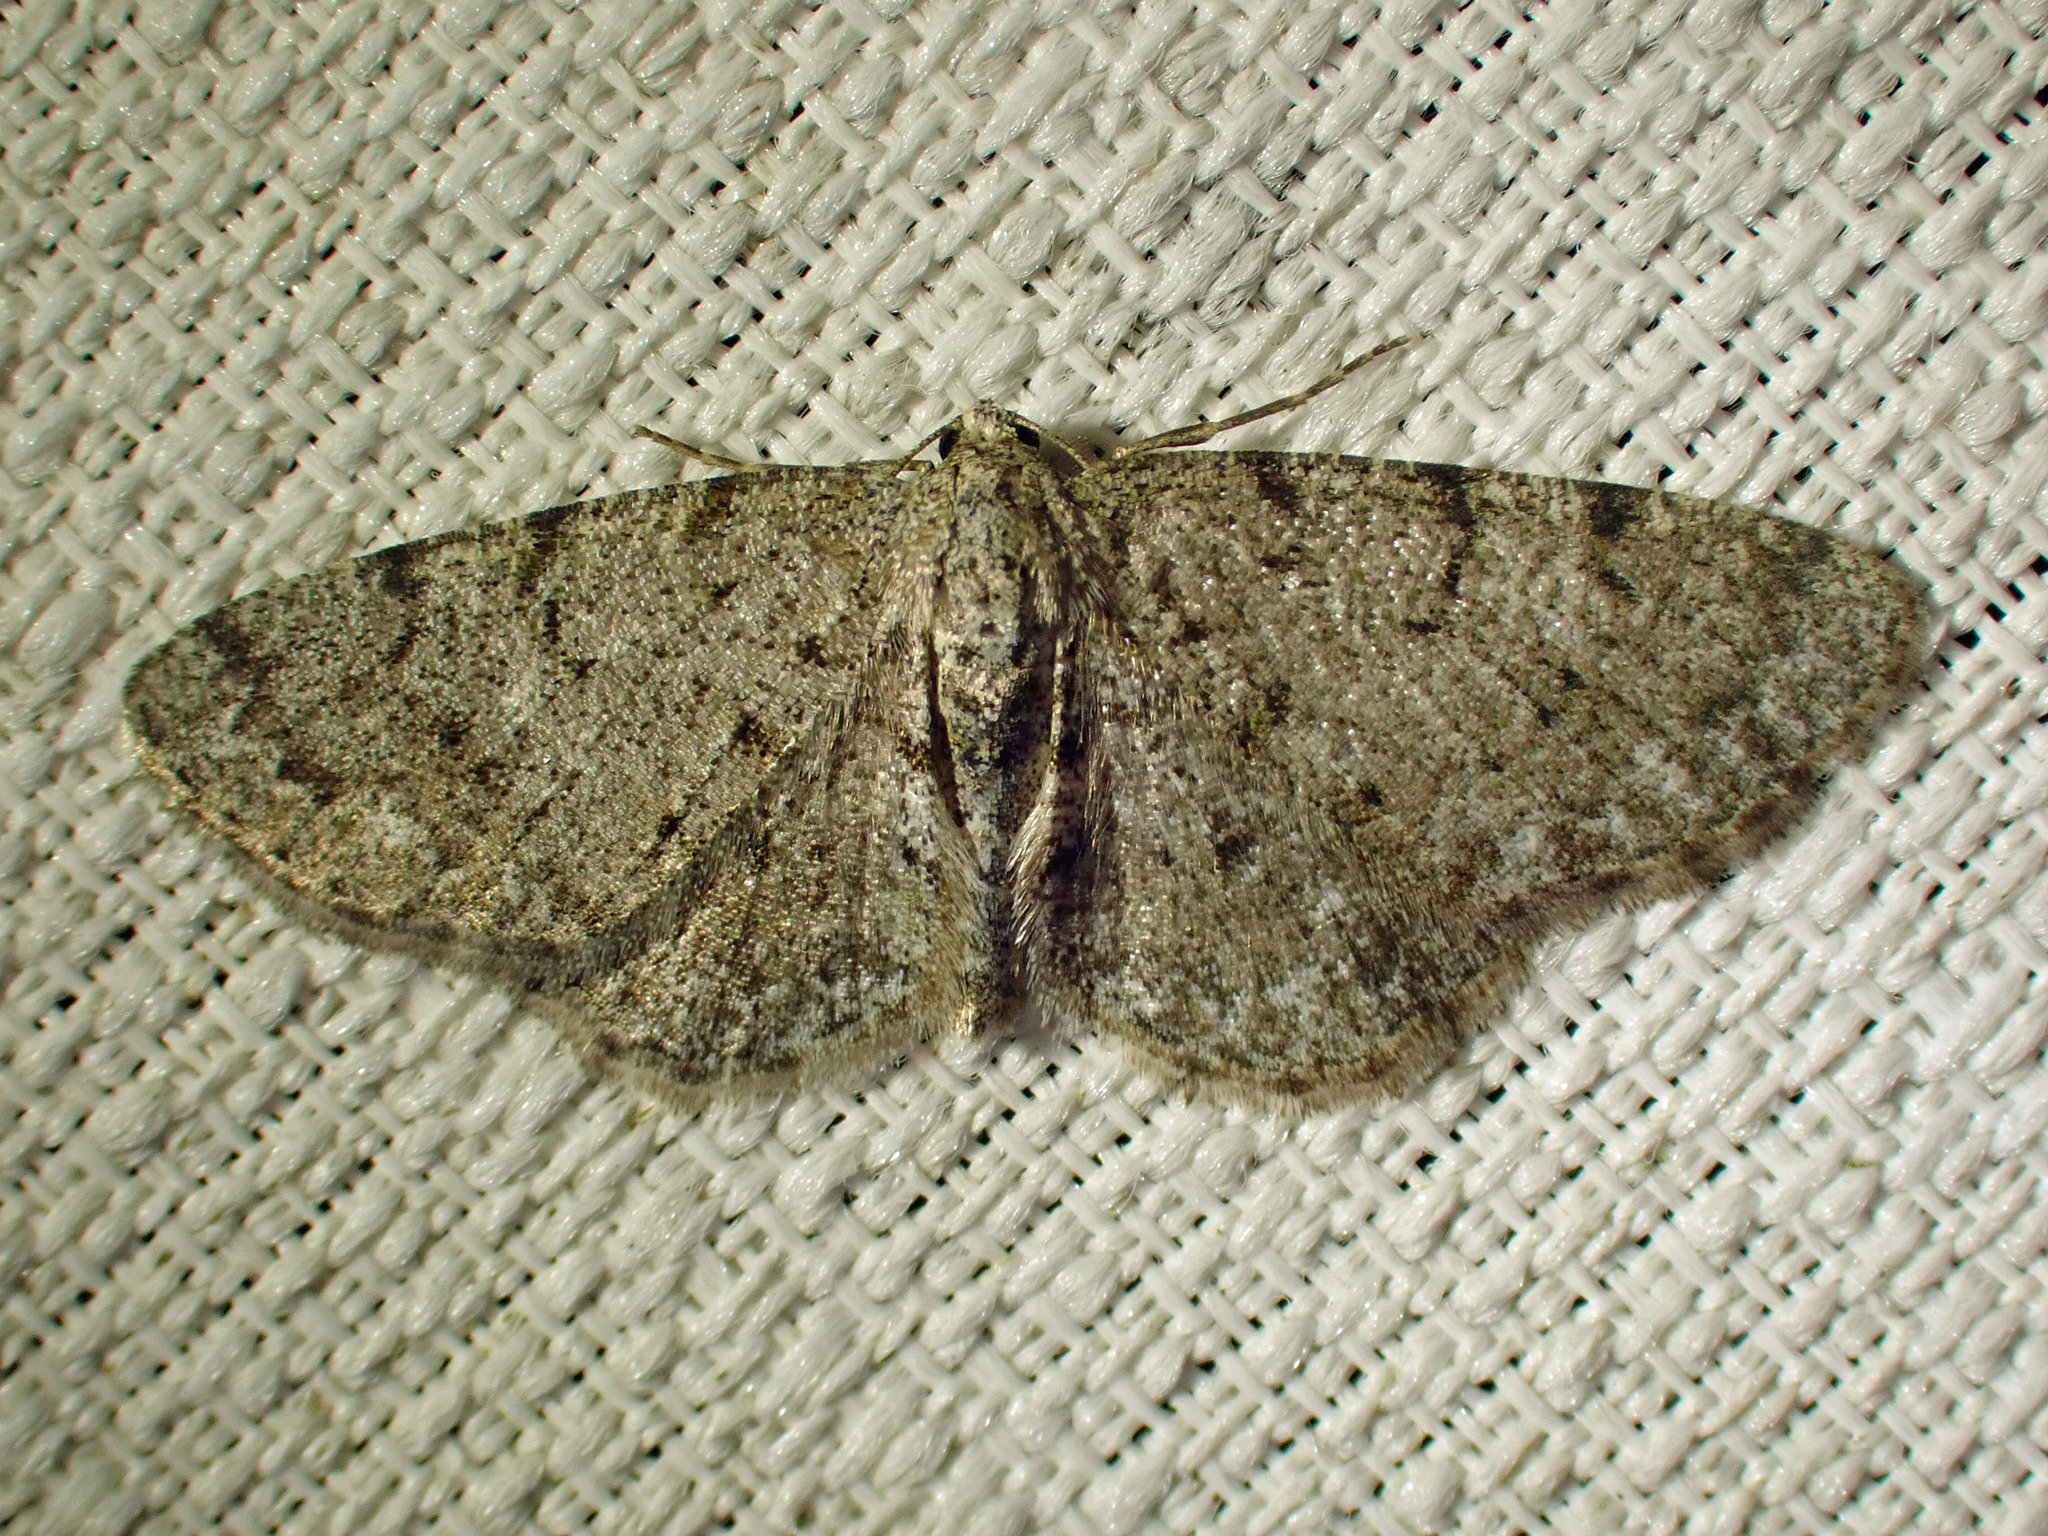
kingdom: Animalia
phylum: Arthropoda
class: Insecta
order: Lepidoptera
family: Geometridae
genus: Aethalura
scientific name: Aethalura intertexta
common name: Four-barred gray
